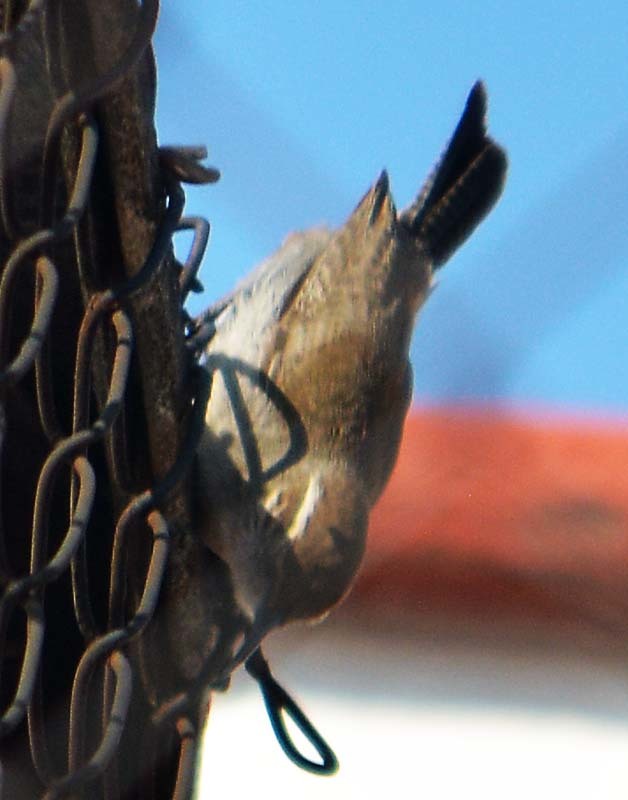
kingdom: Animalia
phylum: Chordata
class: Aves
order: Passeriformes
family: Troglodytidae
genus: Thryomanes
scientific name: Thryomanes bewickii
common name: Bewick's wren
